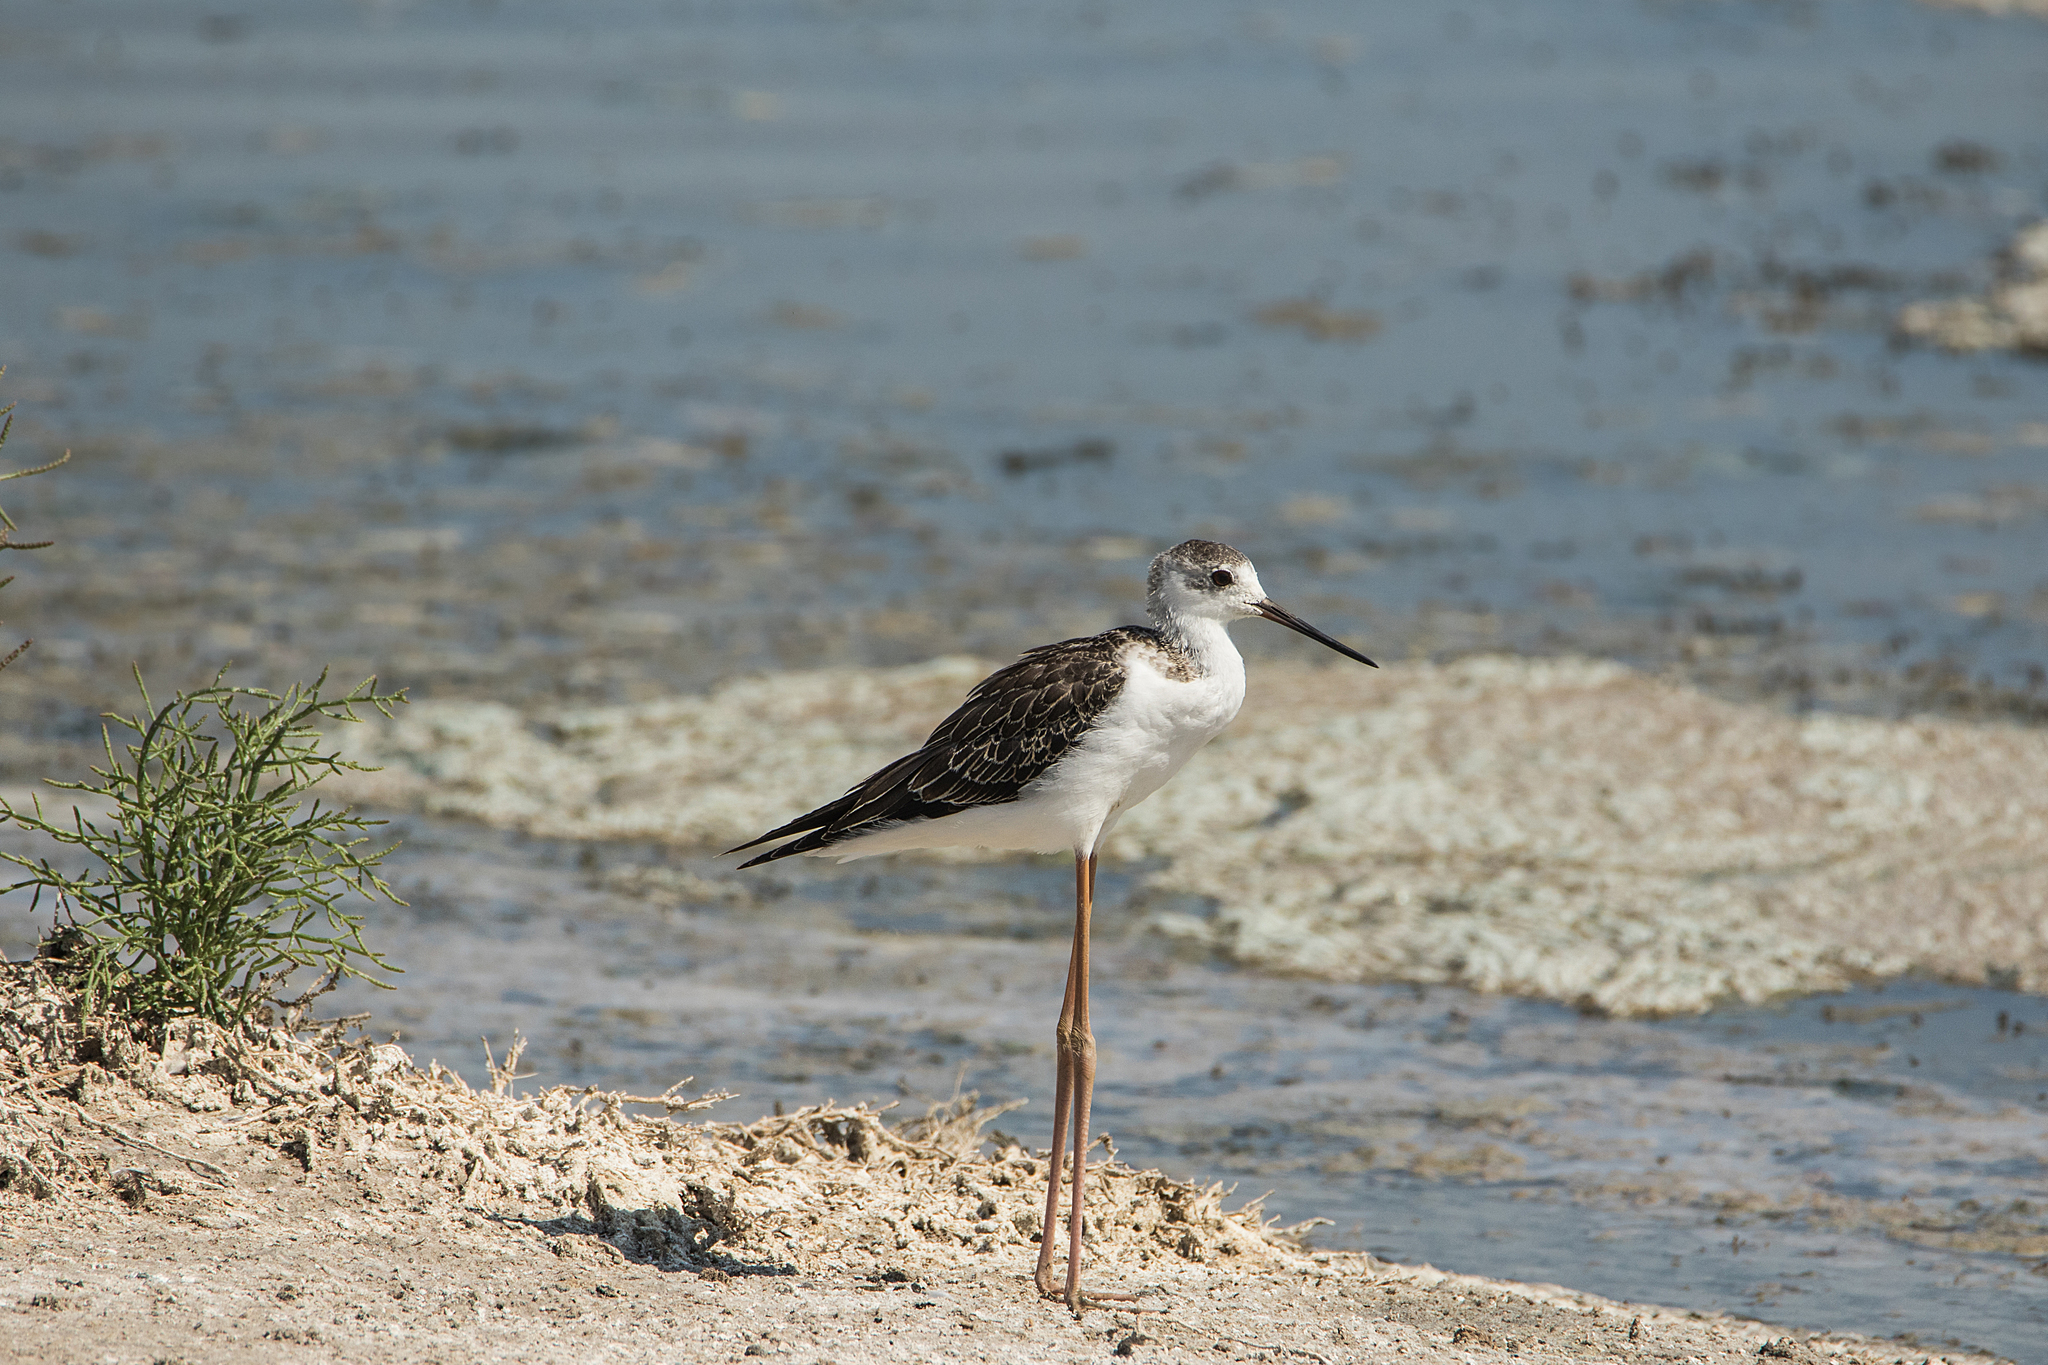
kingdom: Animalia
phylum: Chordata
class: Aves
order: Charadriiformes
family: Recurvirostridae
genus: Himantopus
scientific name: Himantopus himantopus
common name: Black-winged stilt
